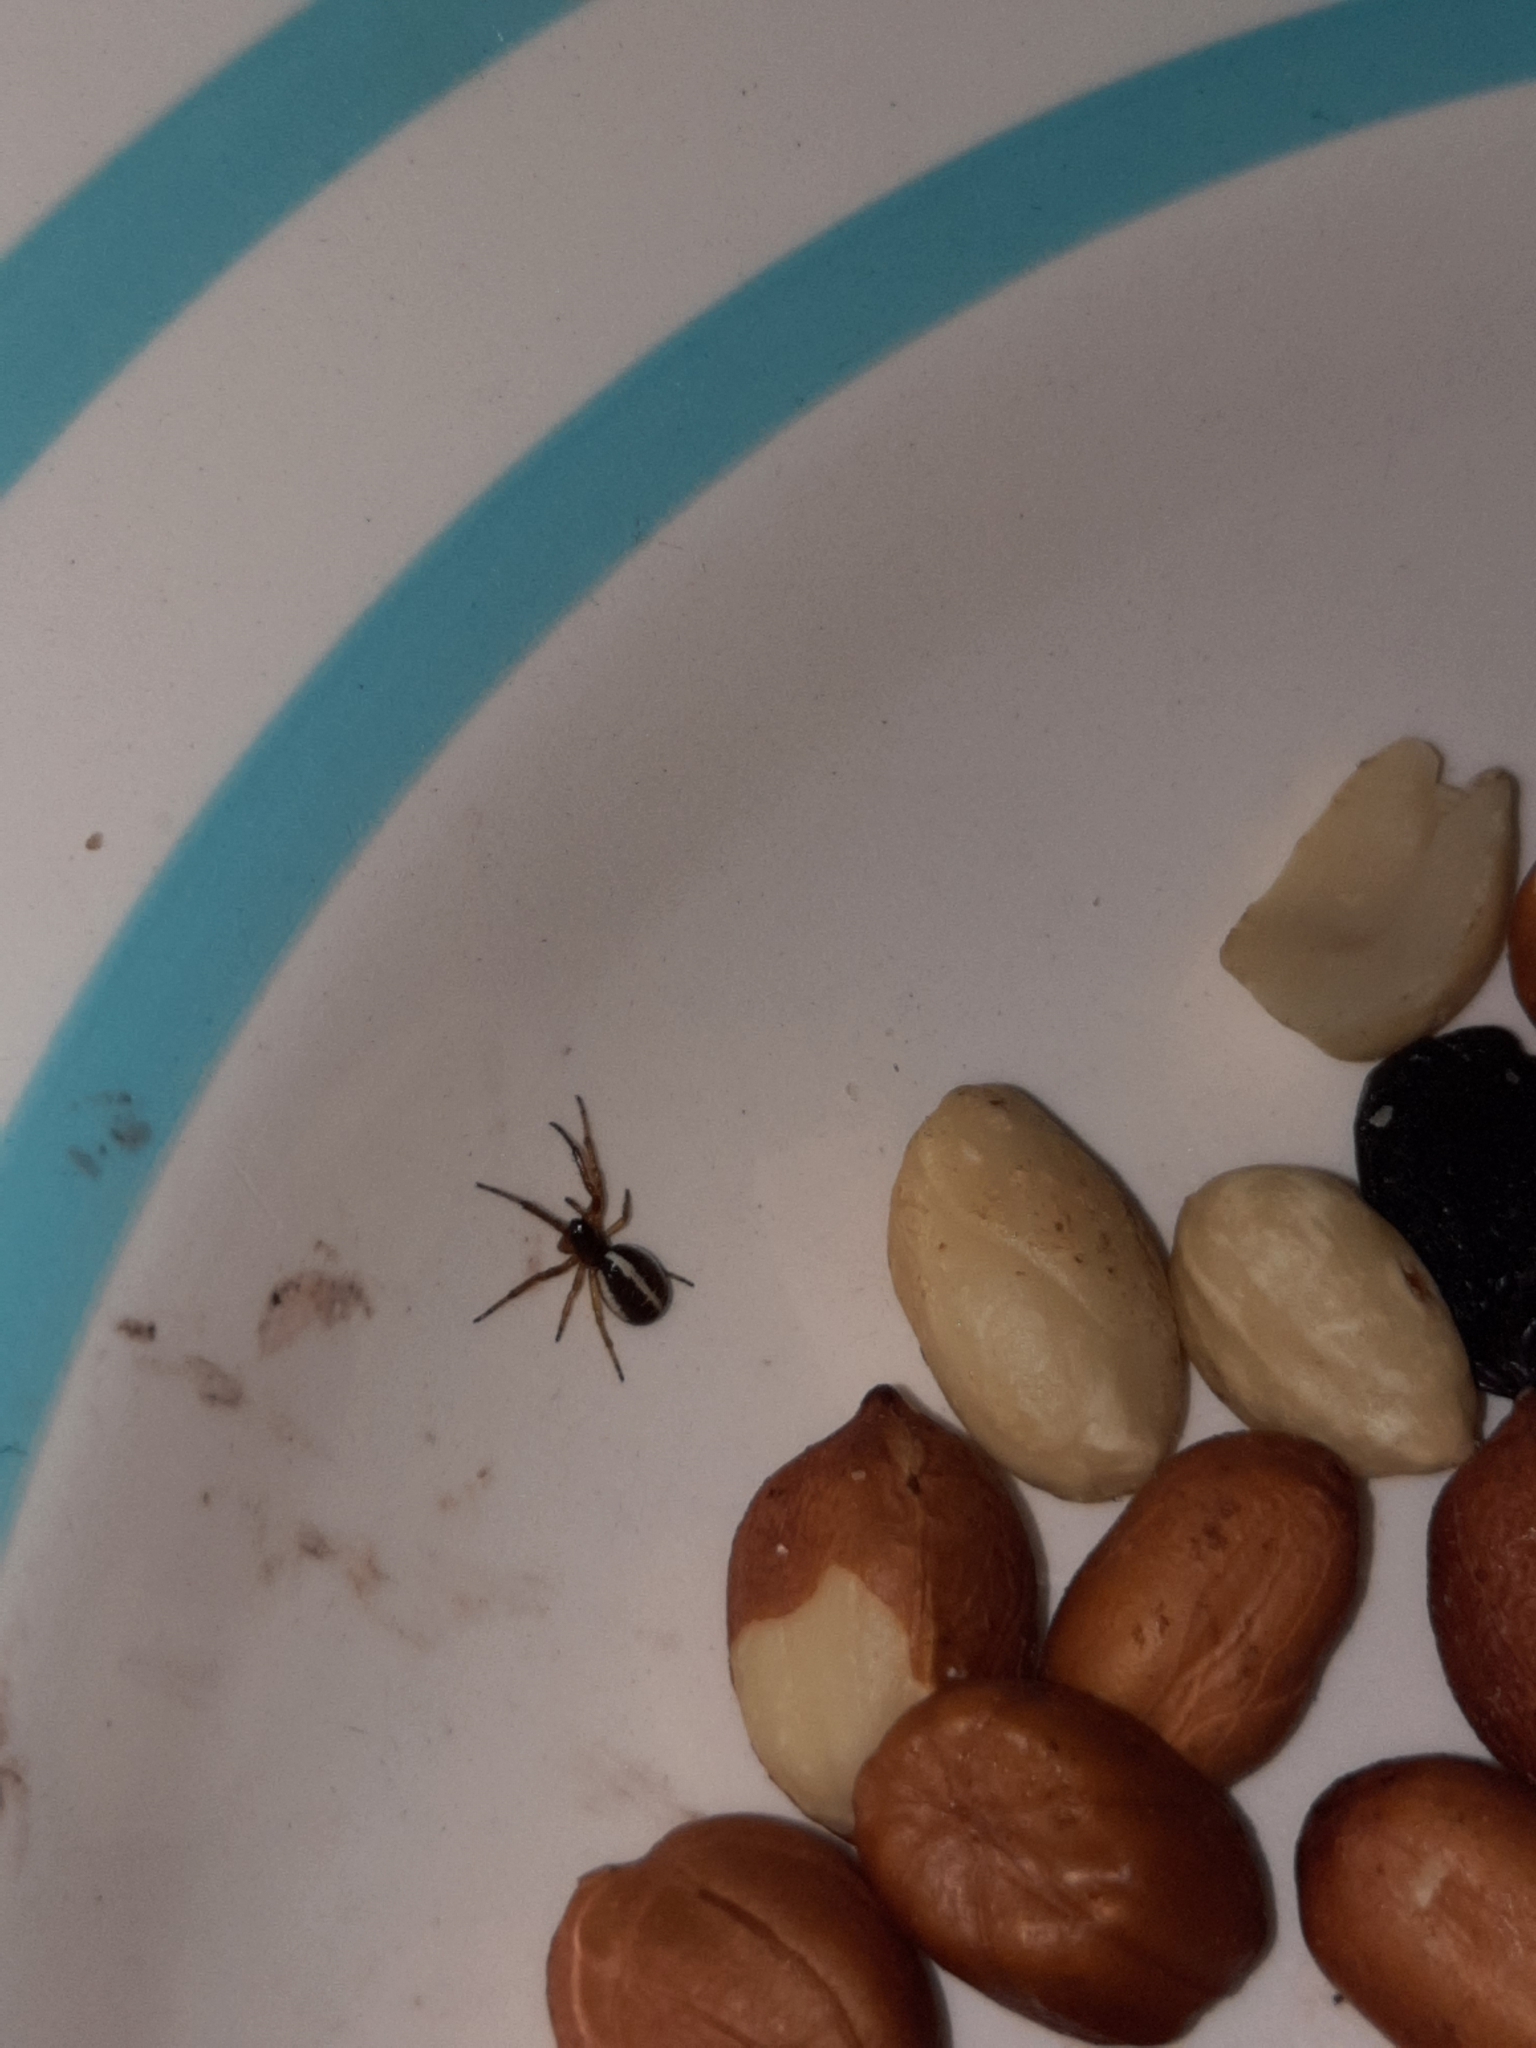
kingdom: Animalia
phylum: Arthropoda
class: Arachnida
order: Araneae
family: Araneidae
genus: Singa
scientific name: Singa nitidula
